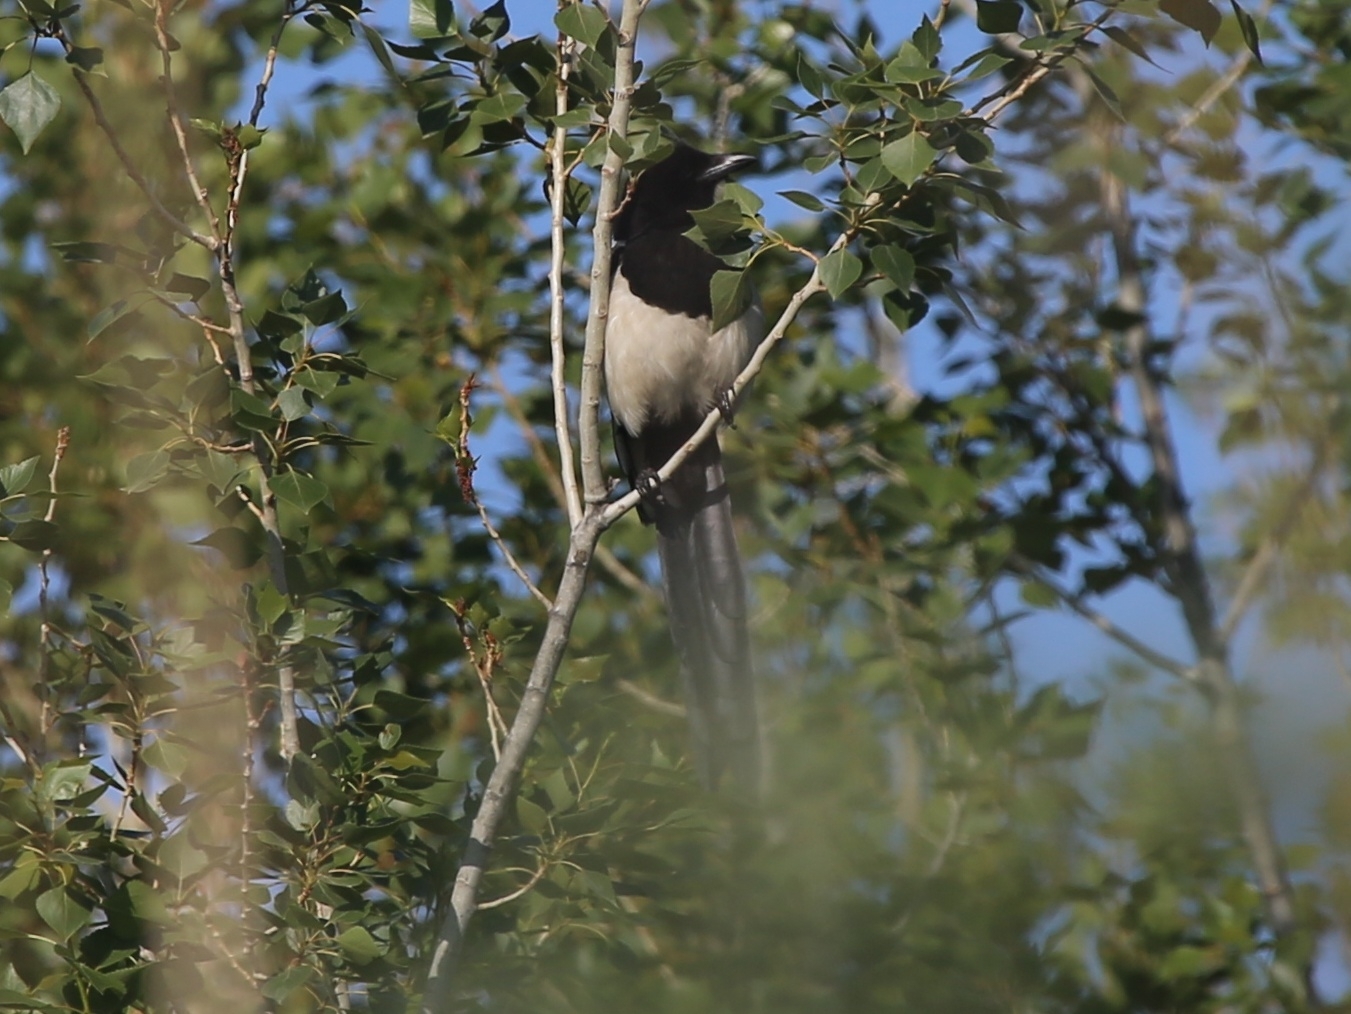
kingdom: Animalia
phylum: Chordata
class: Aves
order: Passeriformes
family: Corvidae
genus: Pica
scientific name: Pica pica
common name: Eurasian magpie
